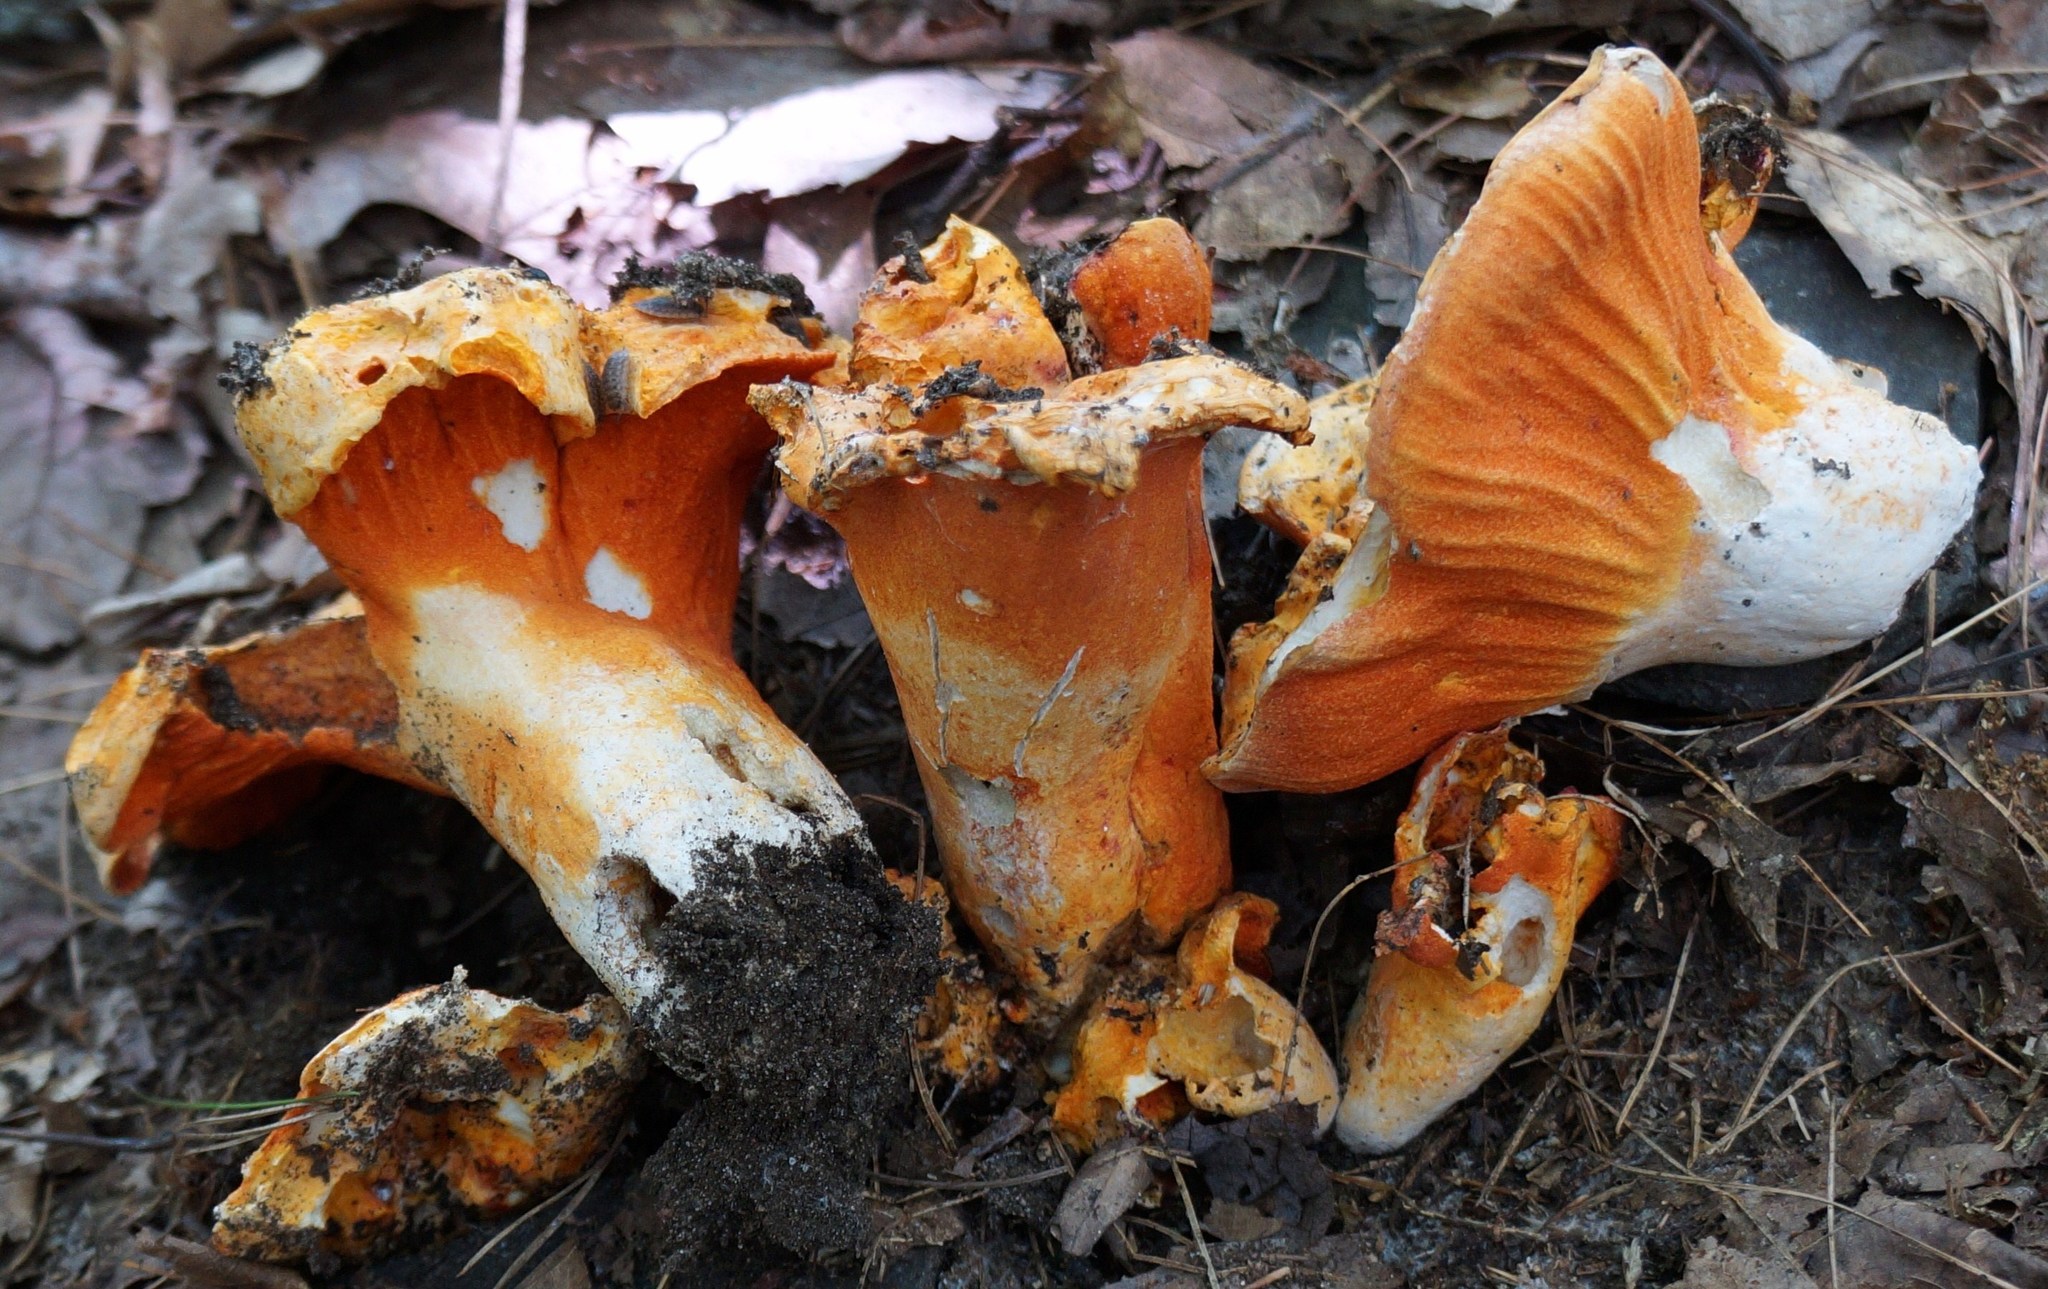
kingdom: Fungi
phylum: Ascomycota
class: Sordariomycetes
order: Hypocreales
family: Hypocreaceae
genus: Hypomyces
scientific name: Hypomyces lactifluorum
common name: Lobster mushroom
